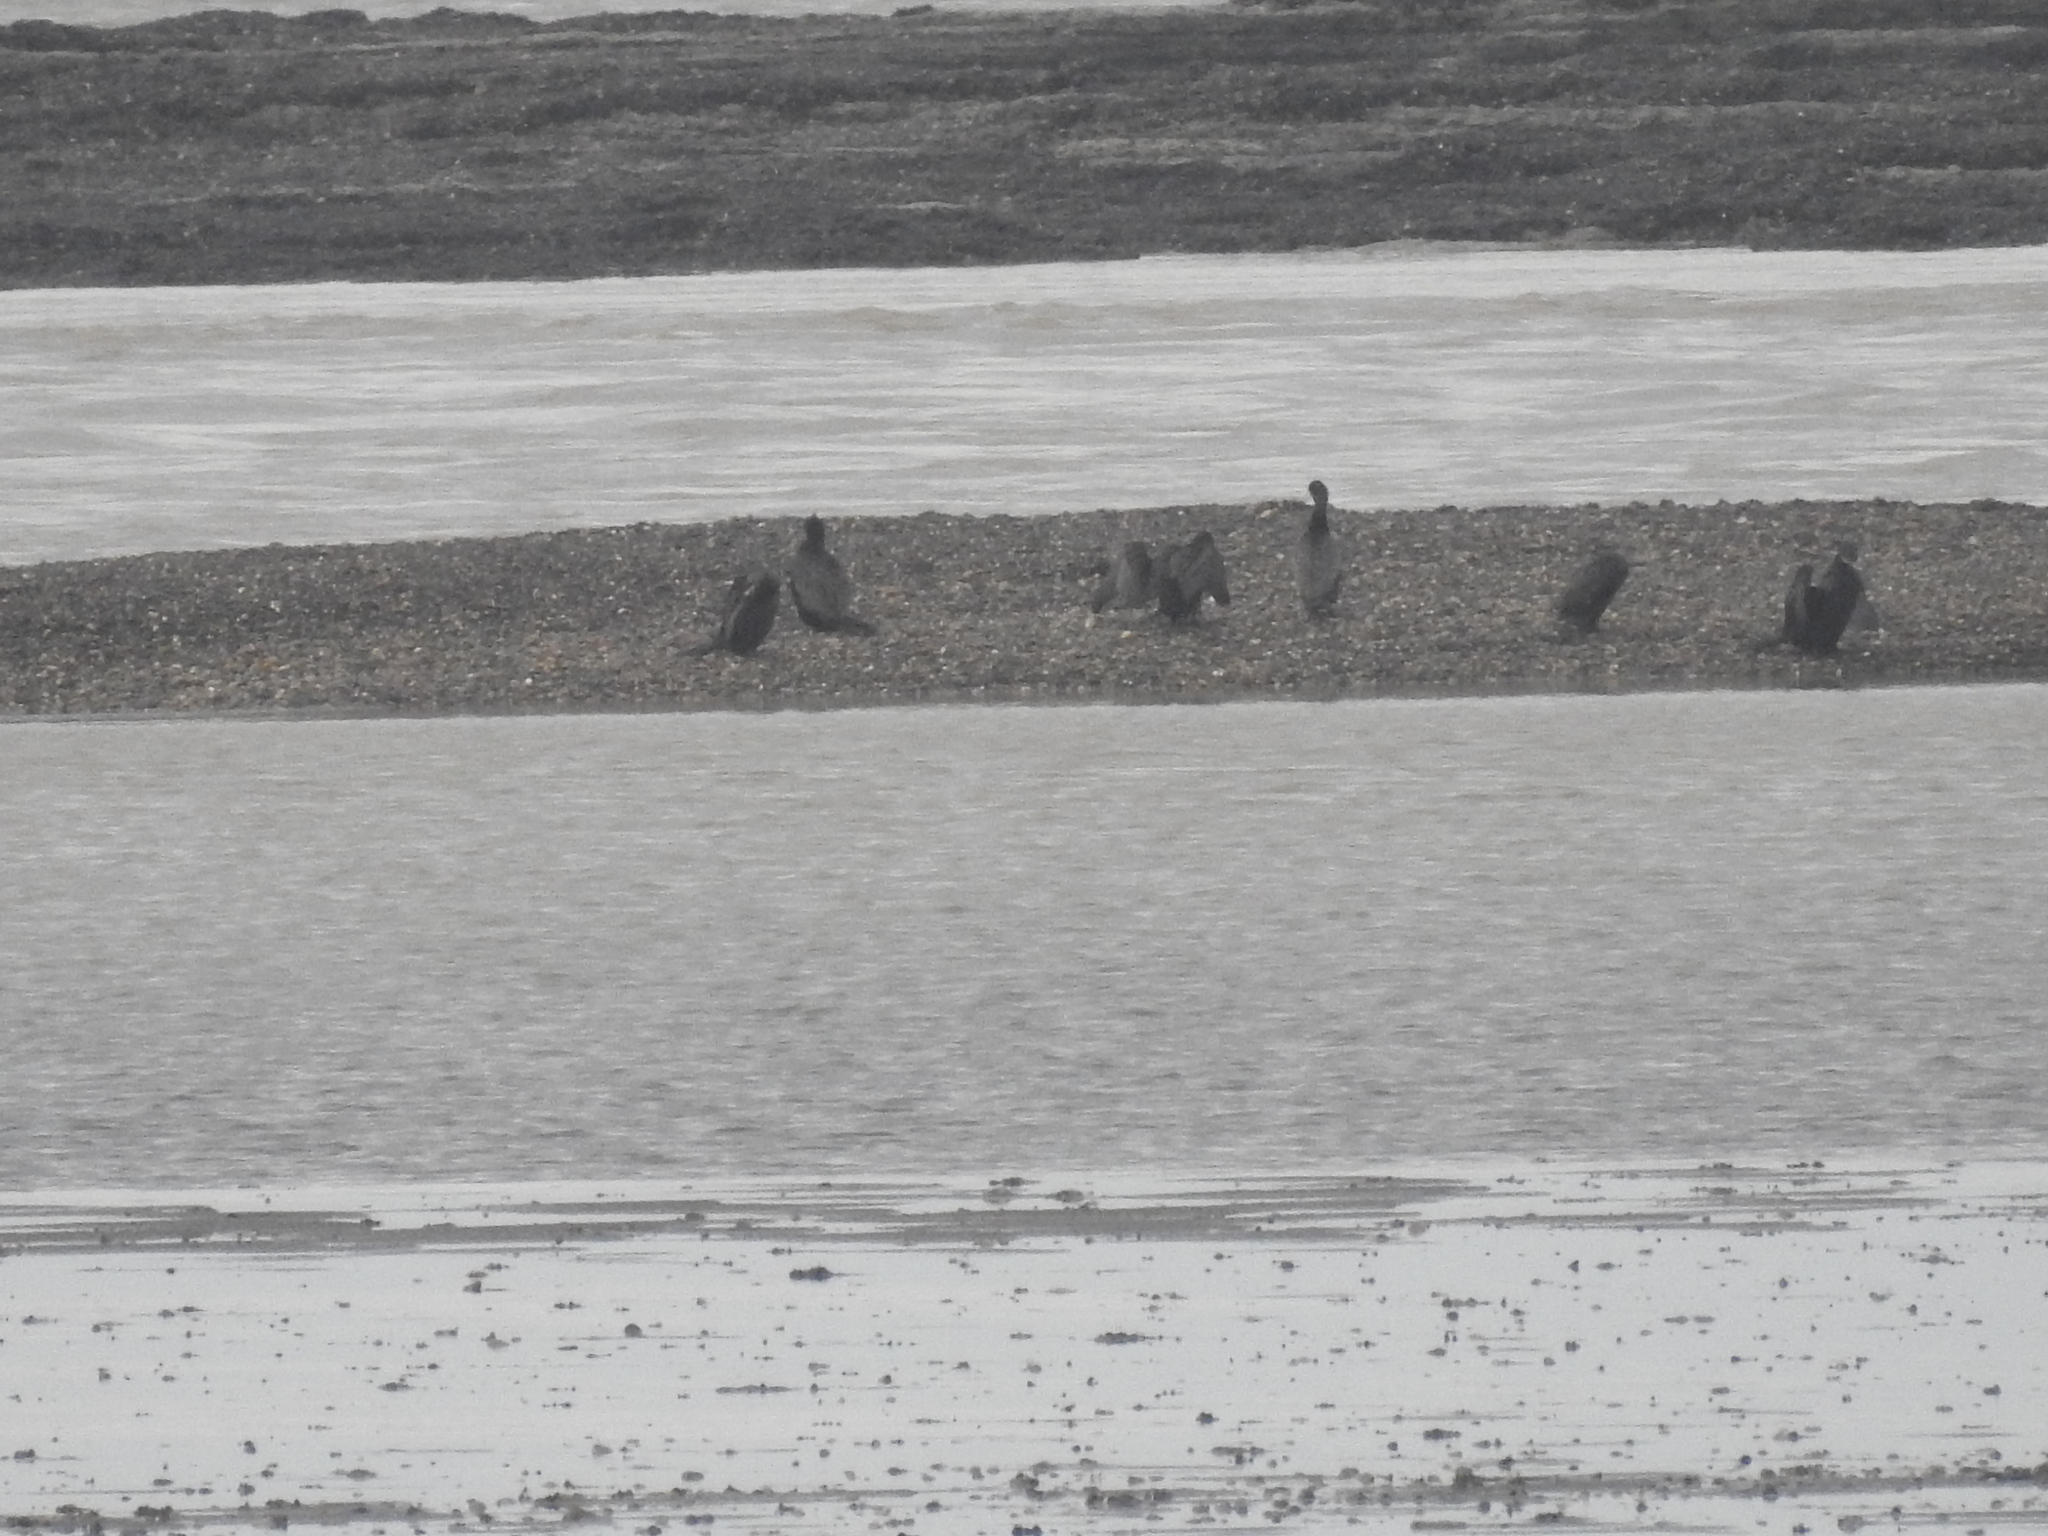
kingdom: Animalia
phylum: Chordata
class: Aves
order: Suliformes
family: Phalacrocoracidae
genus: Phalacrocorax
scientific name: Phalacrocorax brasilianus
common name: Neotropic cormorant
